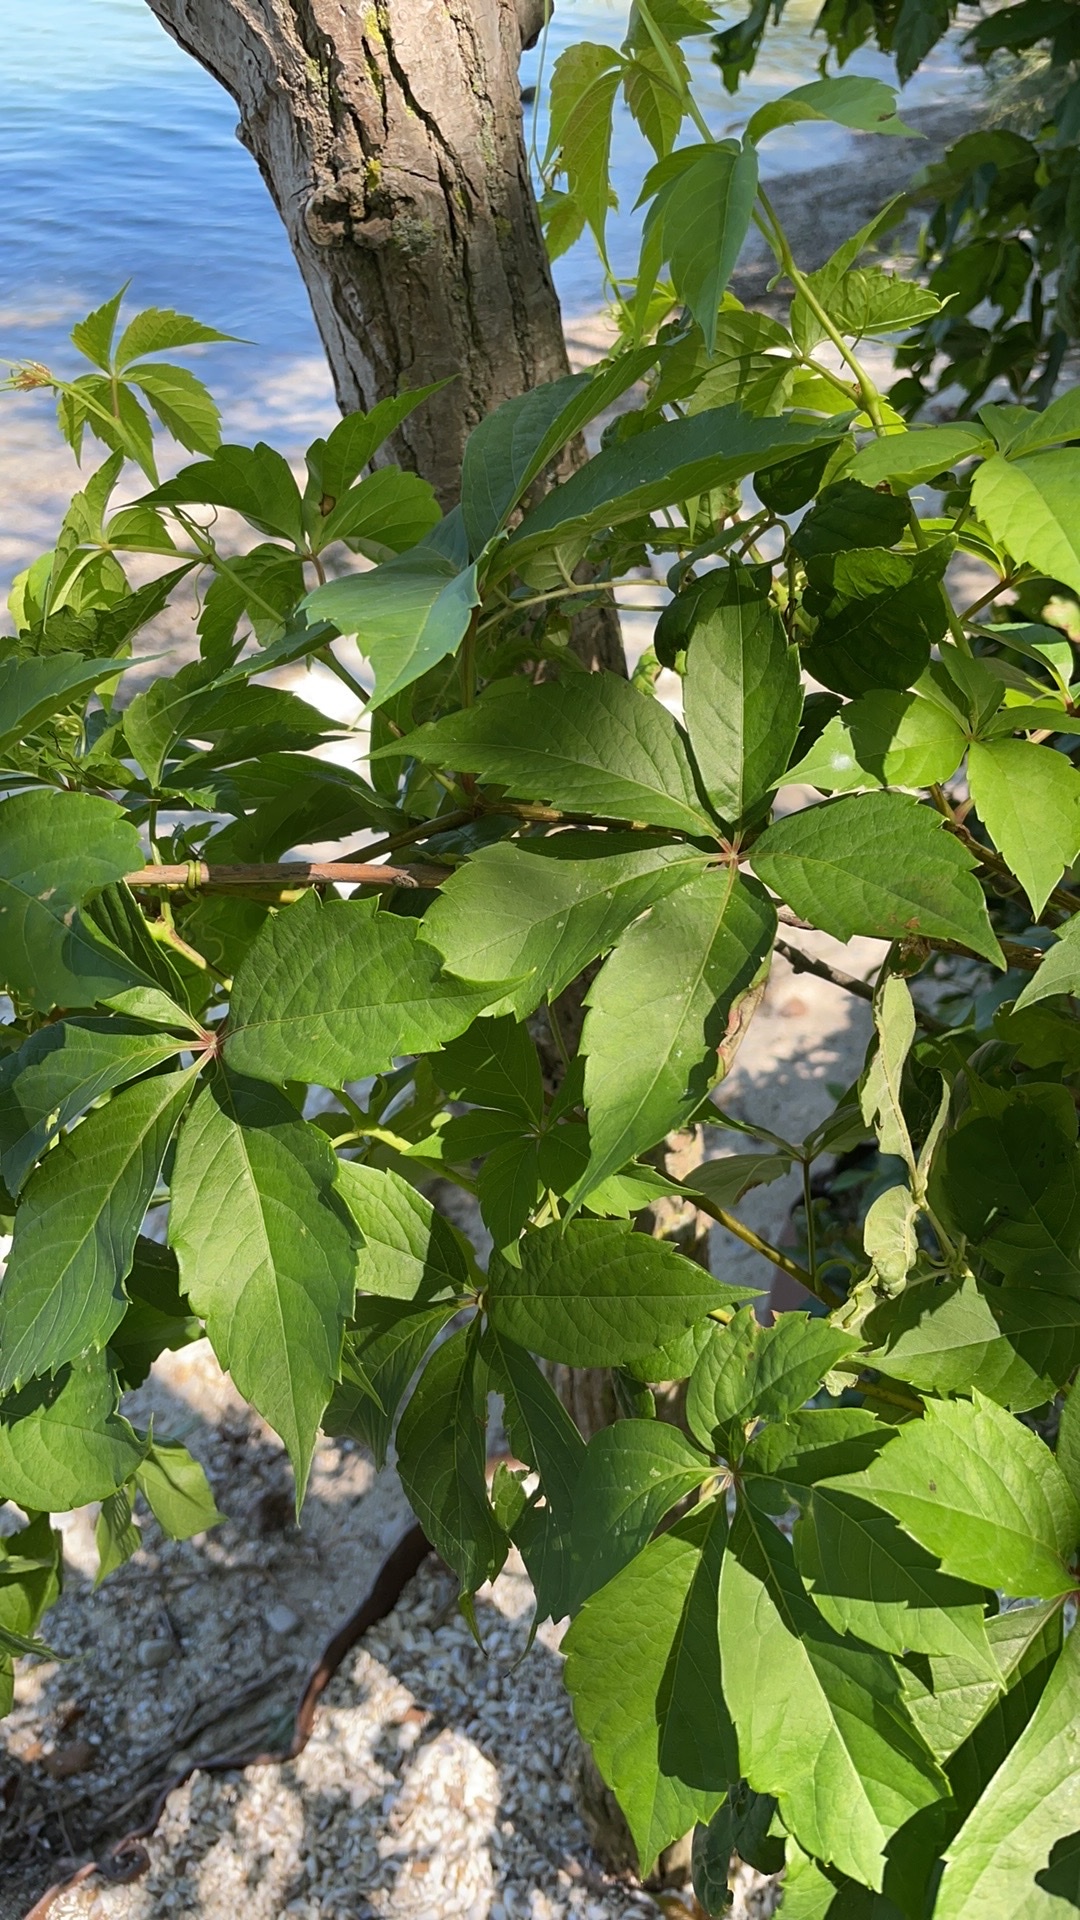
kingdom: Plantae
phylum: Tracheophyta
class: Magnoliopsida
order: Vitales
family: Vitaceae
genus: Parthenocissus
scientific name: Parthenocissus quinquefolia
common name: Virginia-creeper
